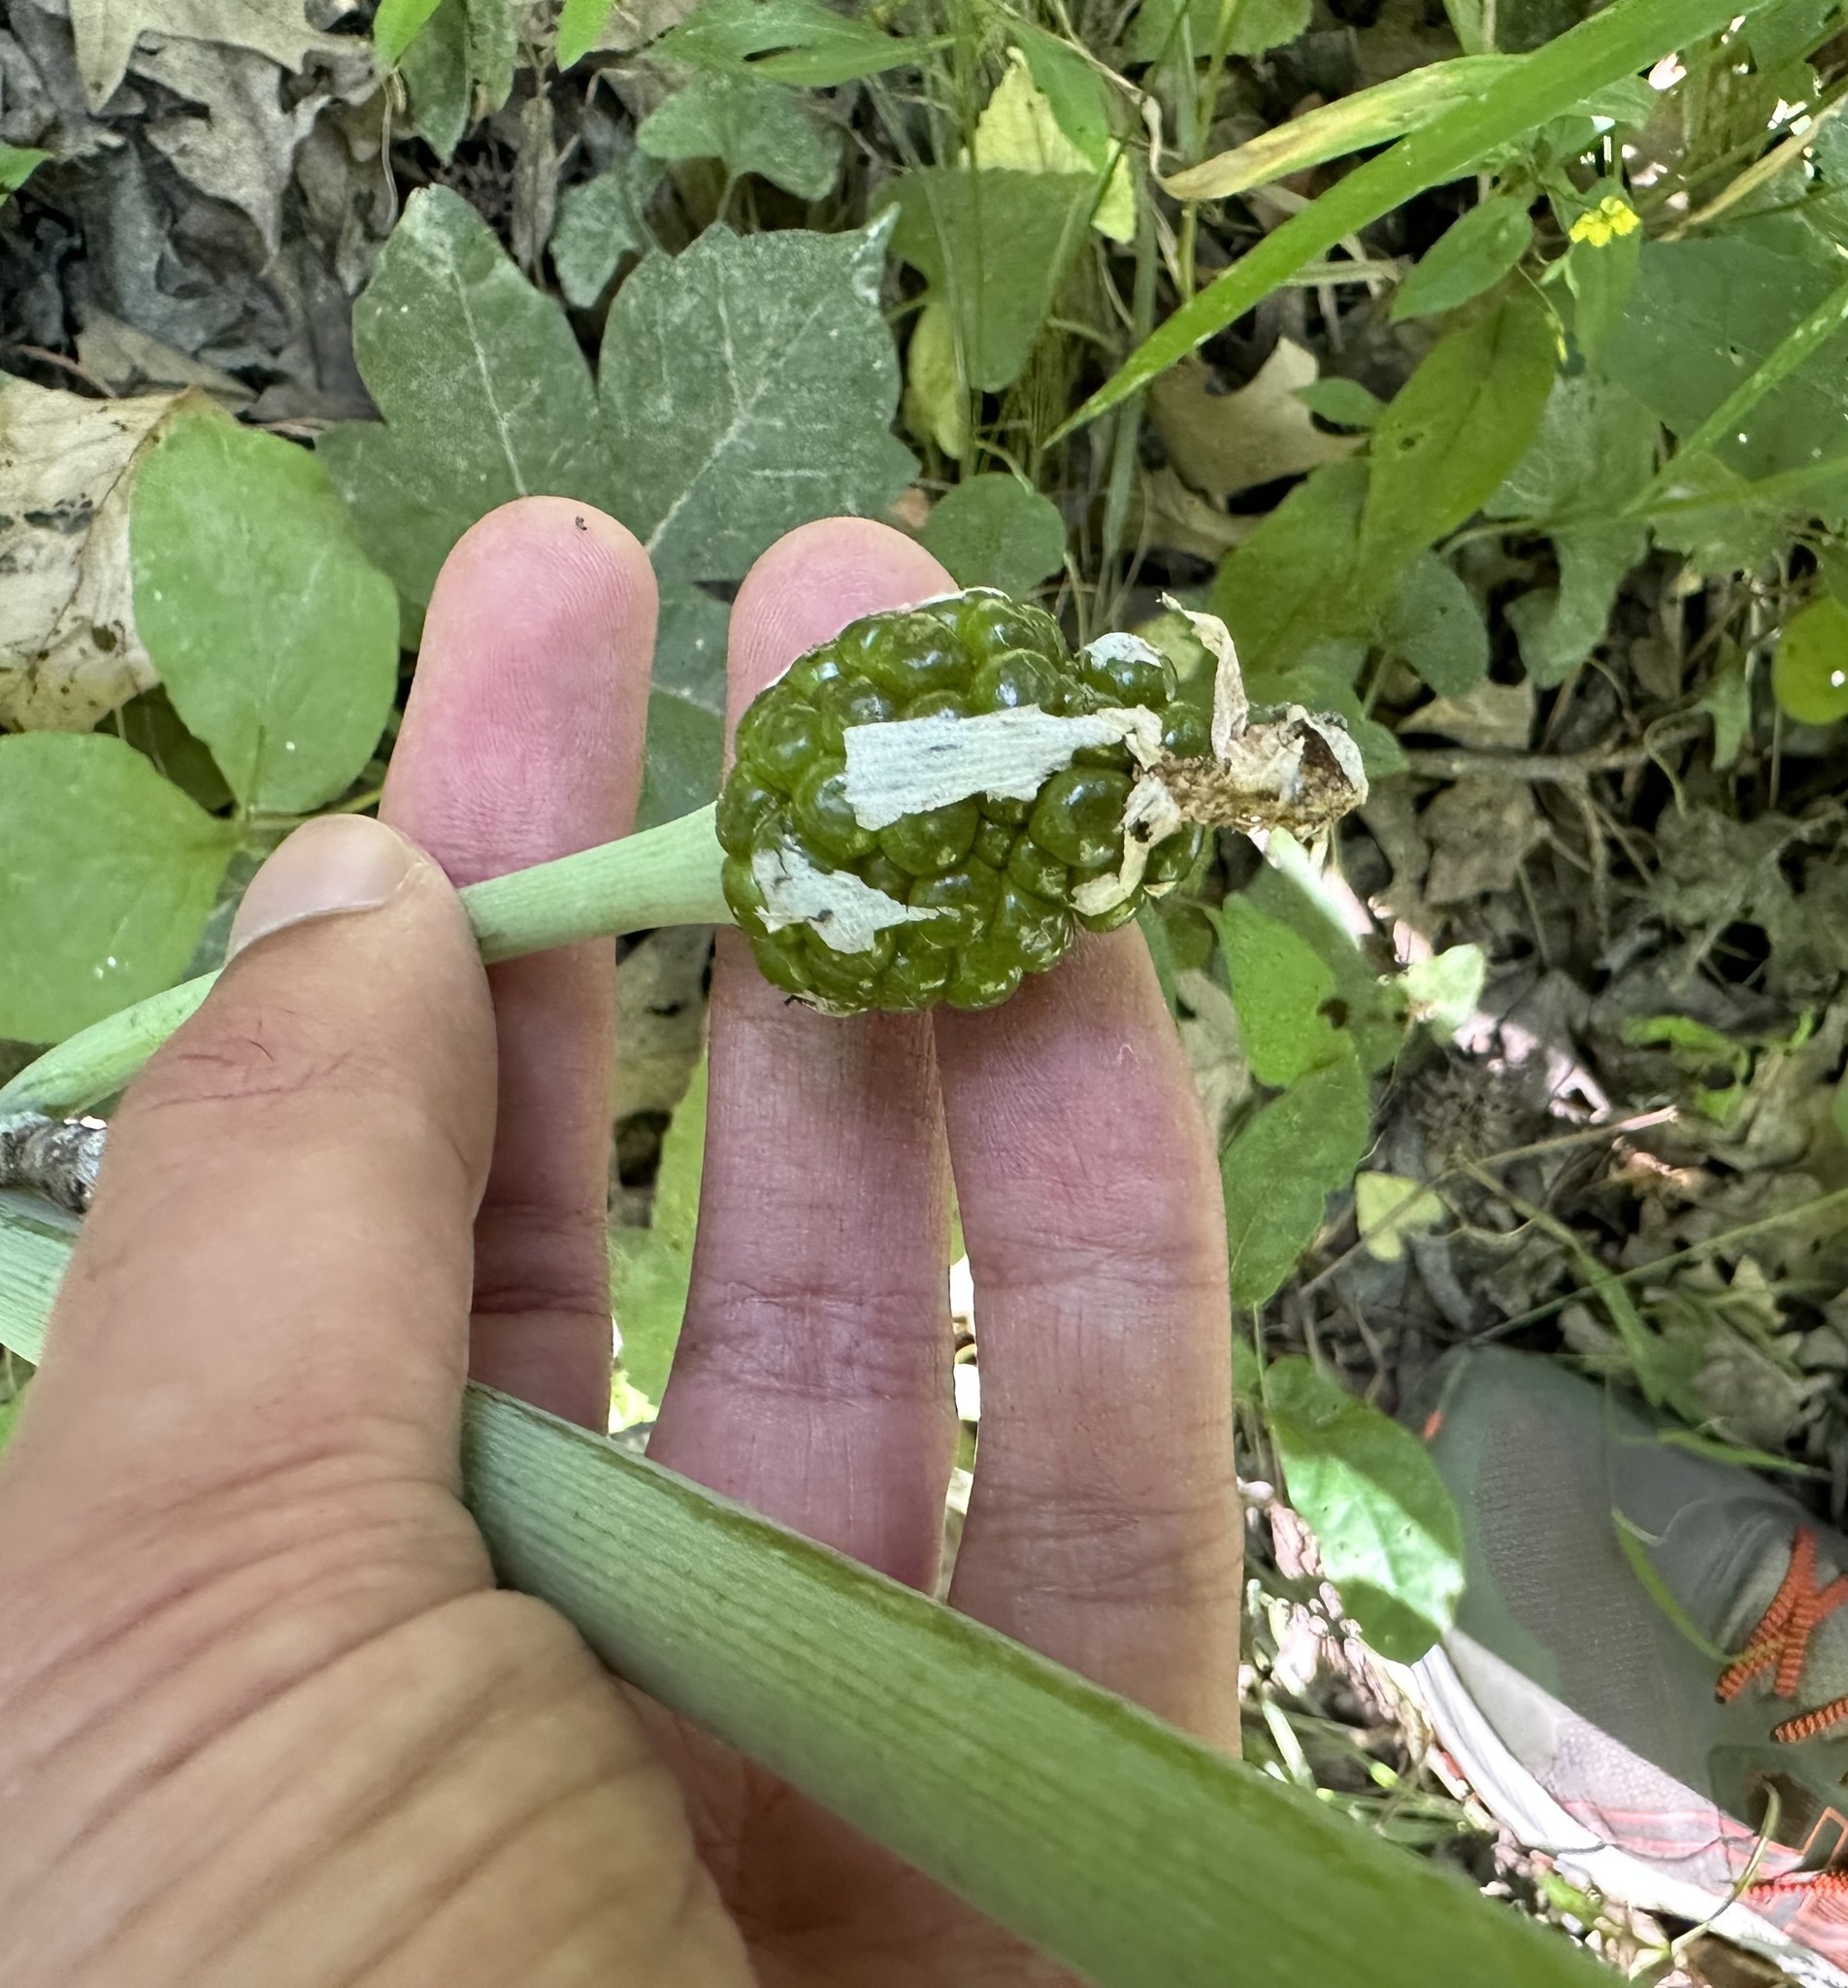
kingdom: Plantae
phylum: Tracheophyta
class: Liliopsida
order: Alismatales
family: Araceae
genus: Arisaema
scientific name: Arisaema dracontium
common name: Dragon-arum
